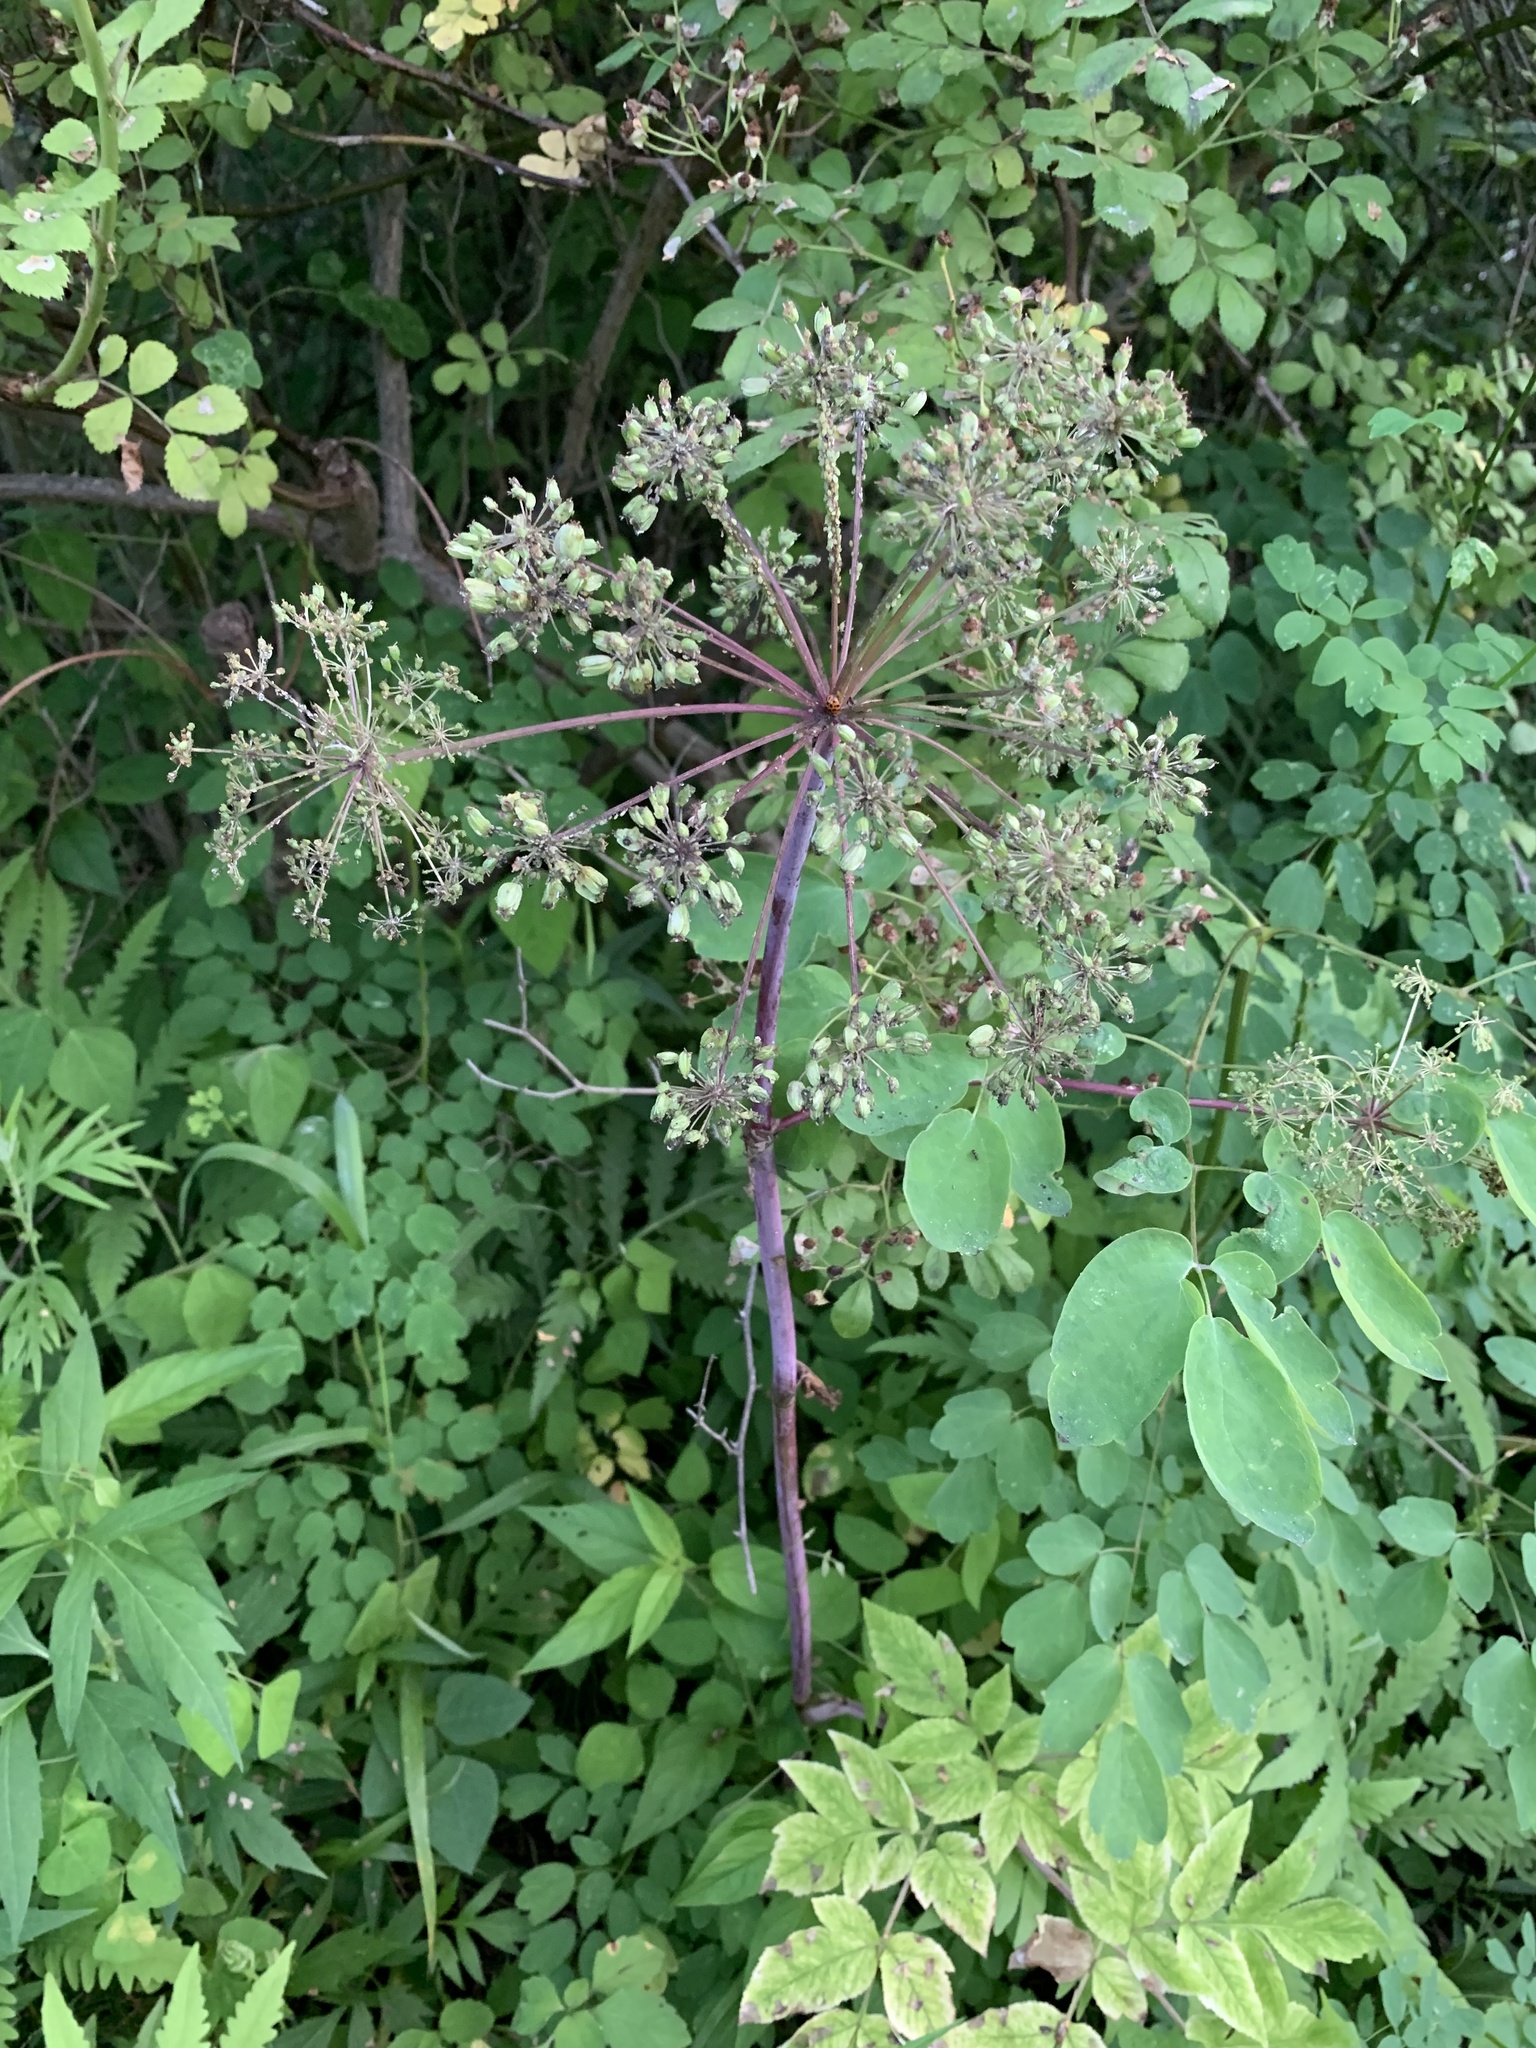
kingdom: Plantae
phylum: Tracheophyta
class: Magnoliopsida
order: Apiales
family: Apiaceae
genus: Angelica
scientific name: Angelica atropurpurea
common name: Great angelica
